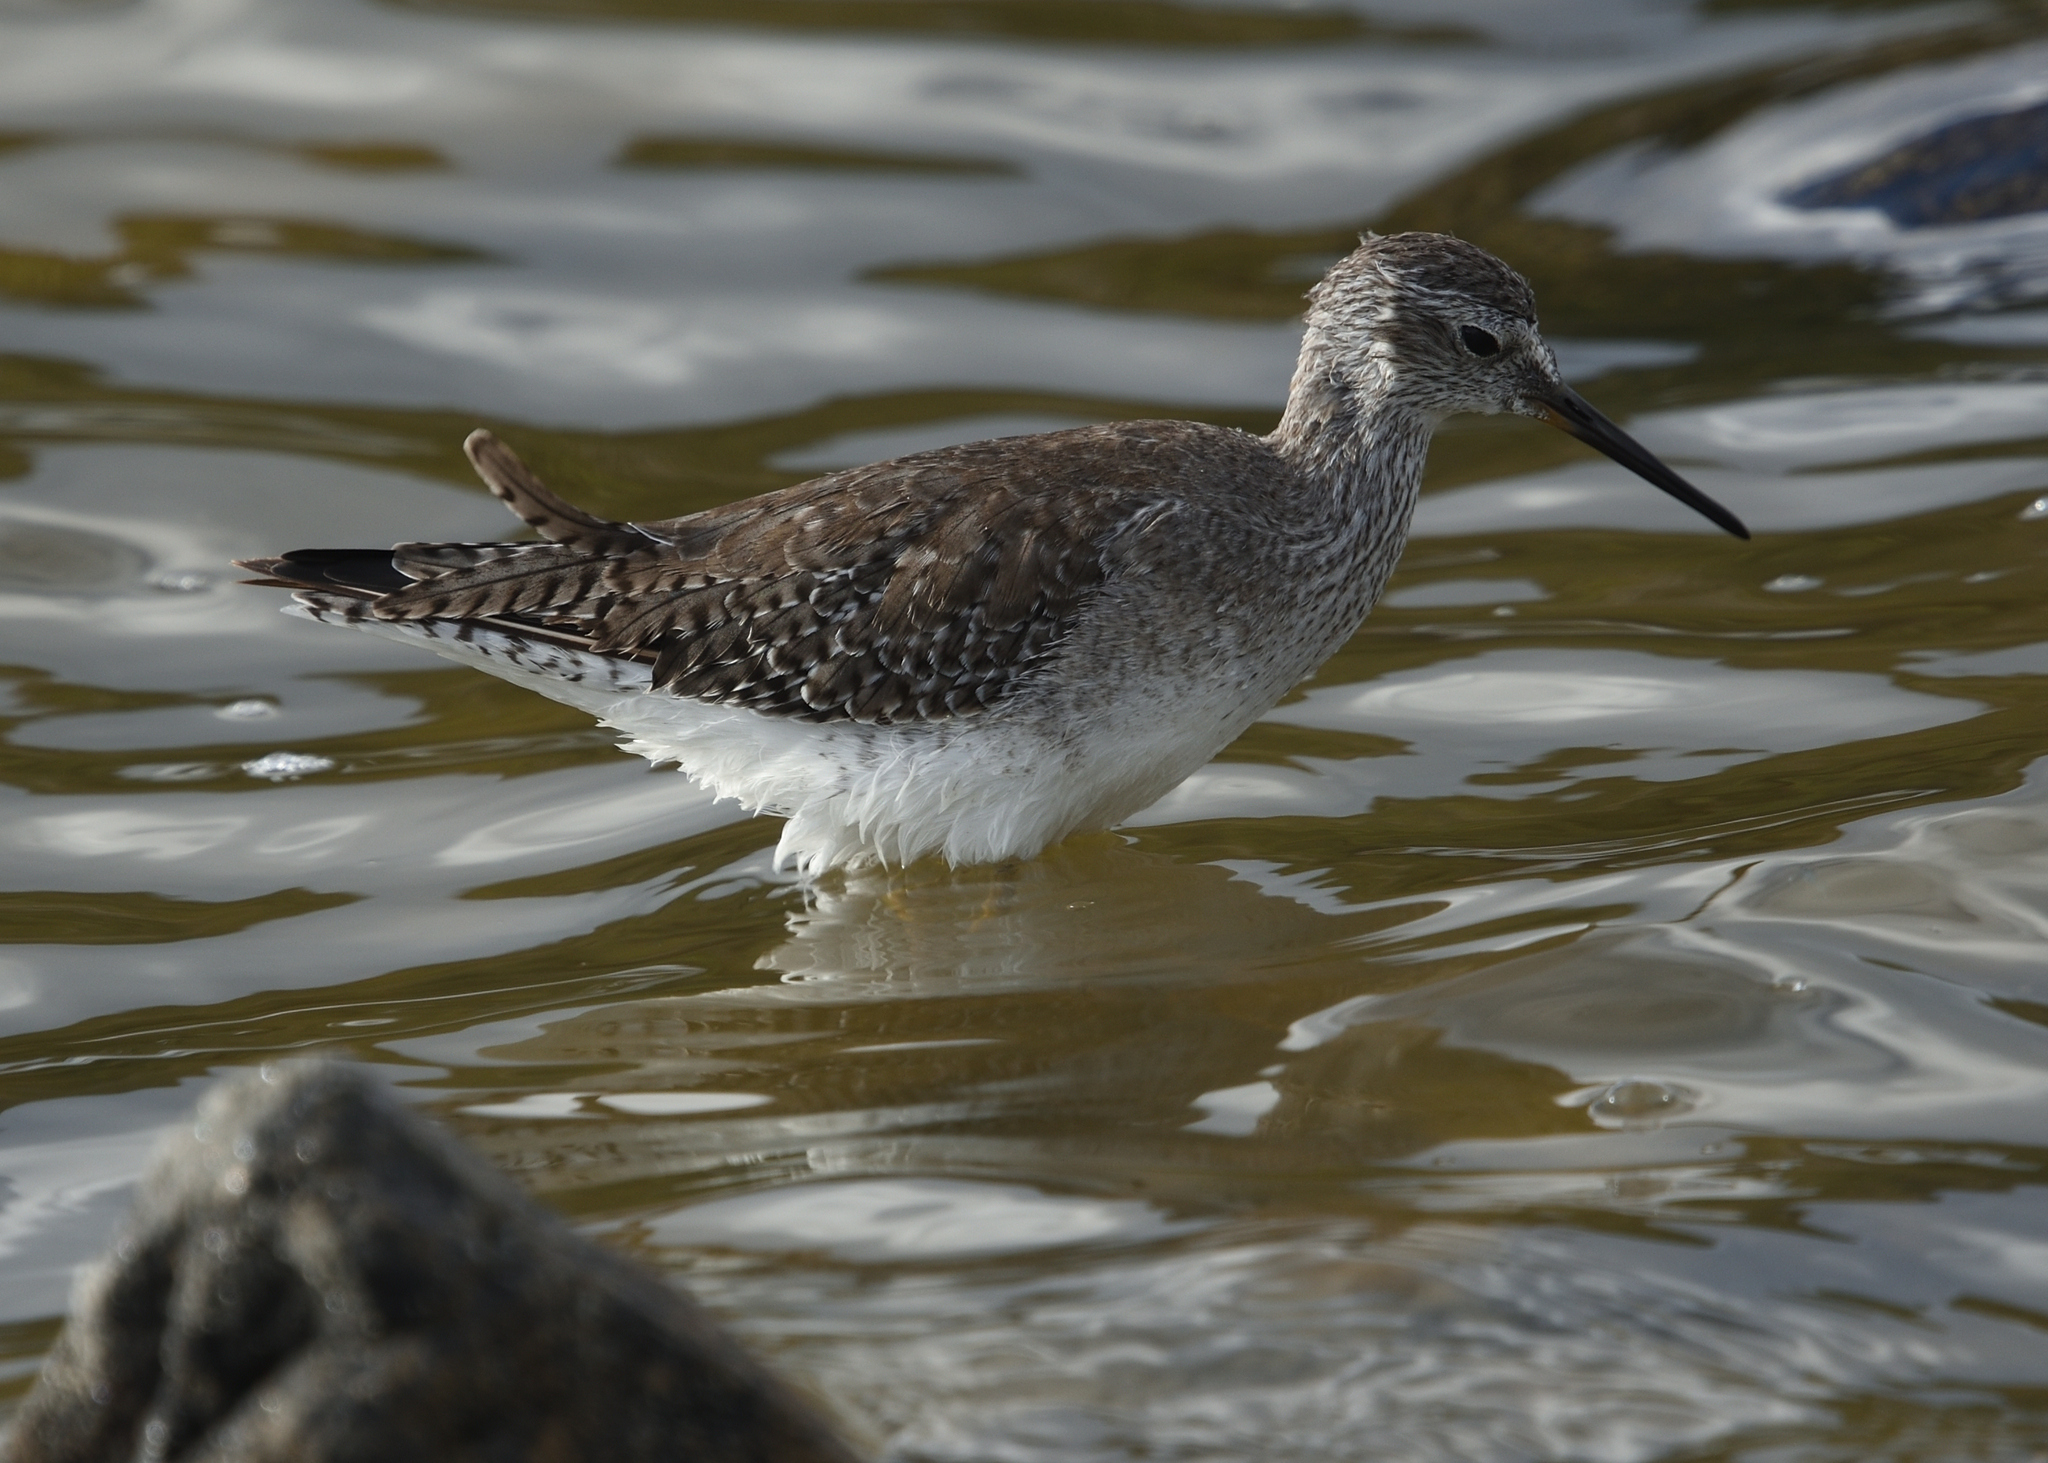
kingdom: Animalia
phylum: Chordata
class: Aves
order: Charadriiformes
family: Scolopacidae
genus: Tringa
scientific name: Tringa flavipes
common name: Lesser yellowlegs
